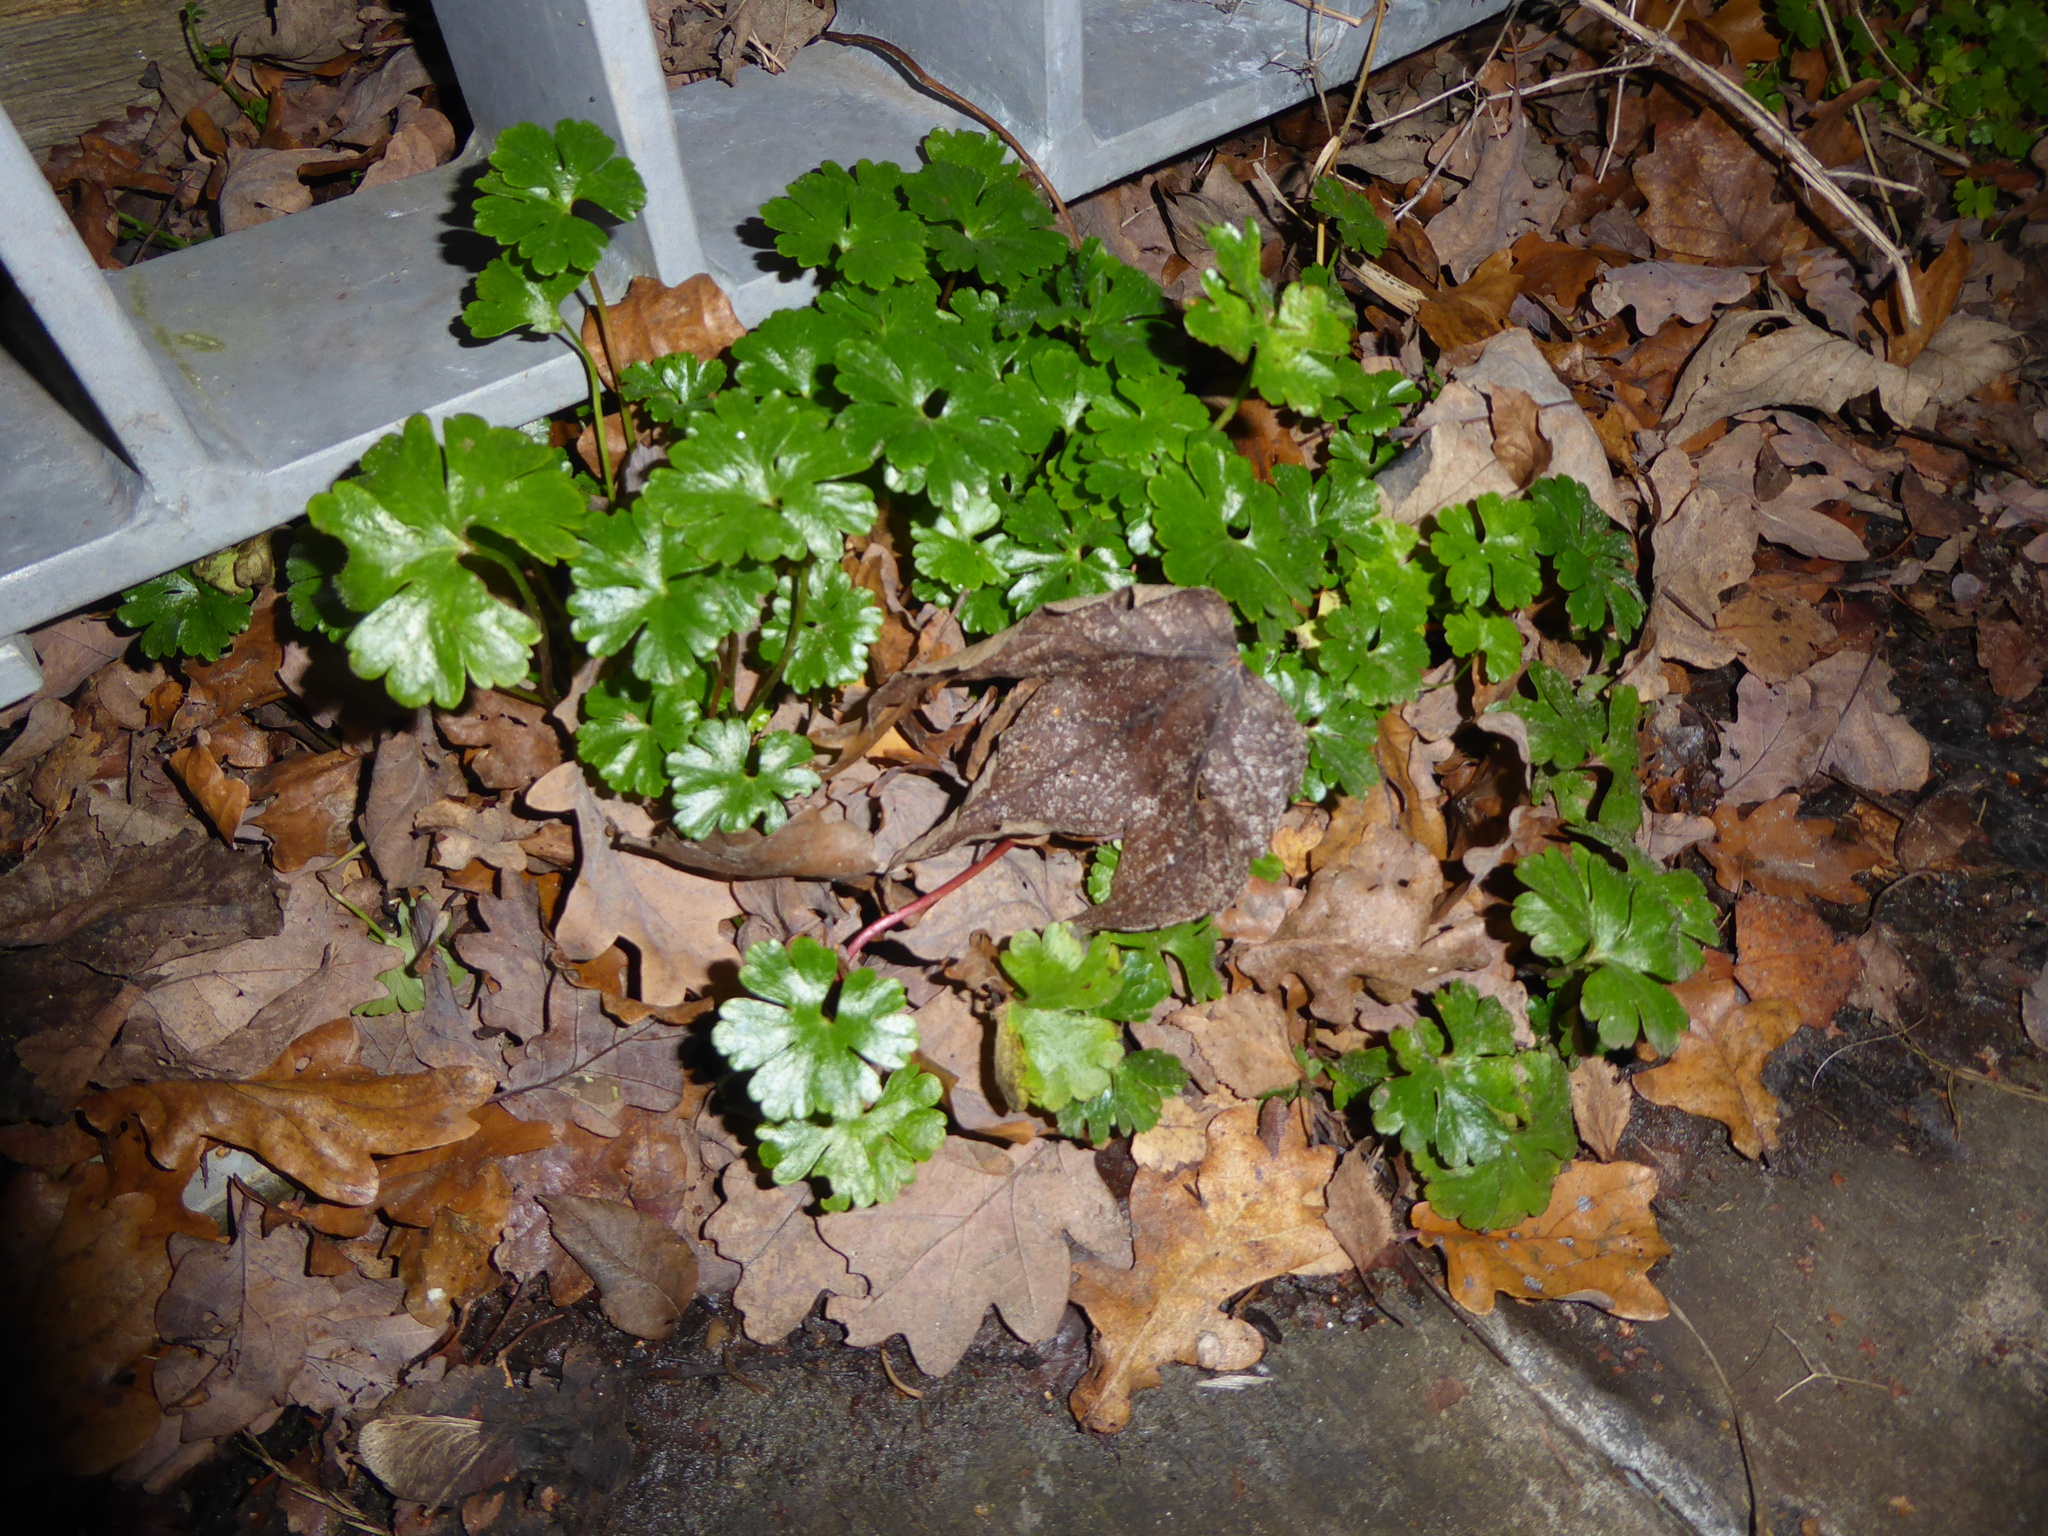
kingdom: Plantae
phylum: Tracheophyta
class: Magnoliopsida
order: Geraniales
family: Geraniaceae
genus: Geranium
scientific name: Geranium lucidum
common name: Shining crane's-bill
